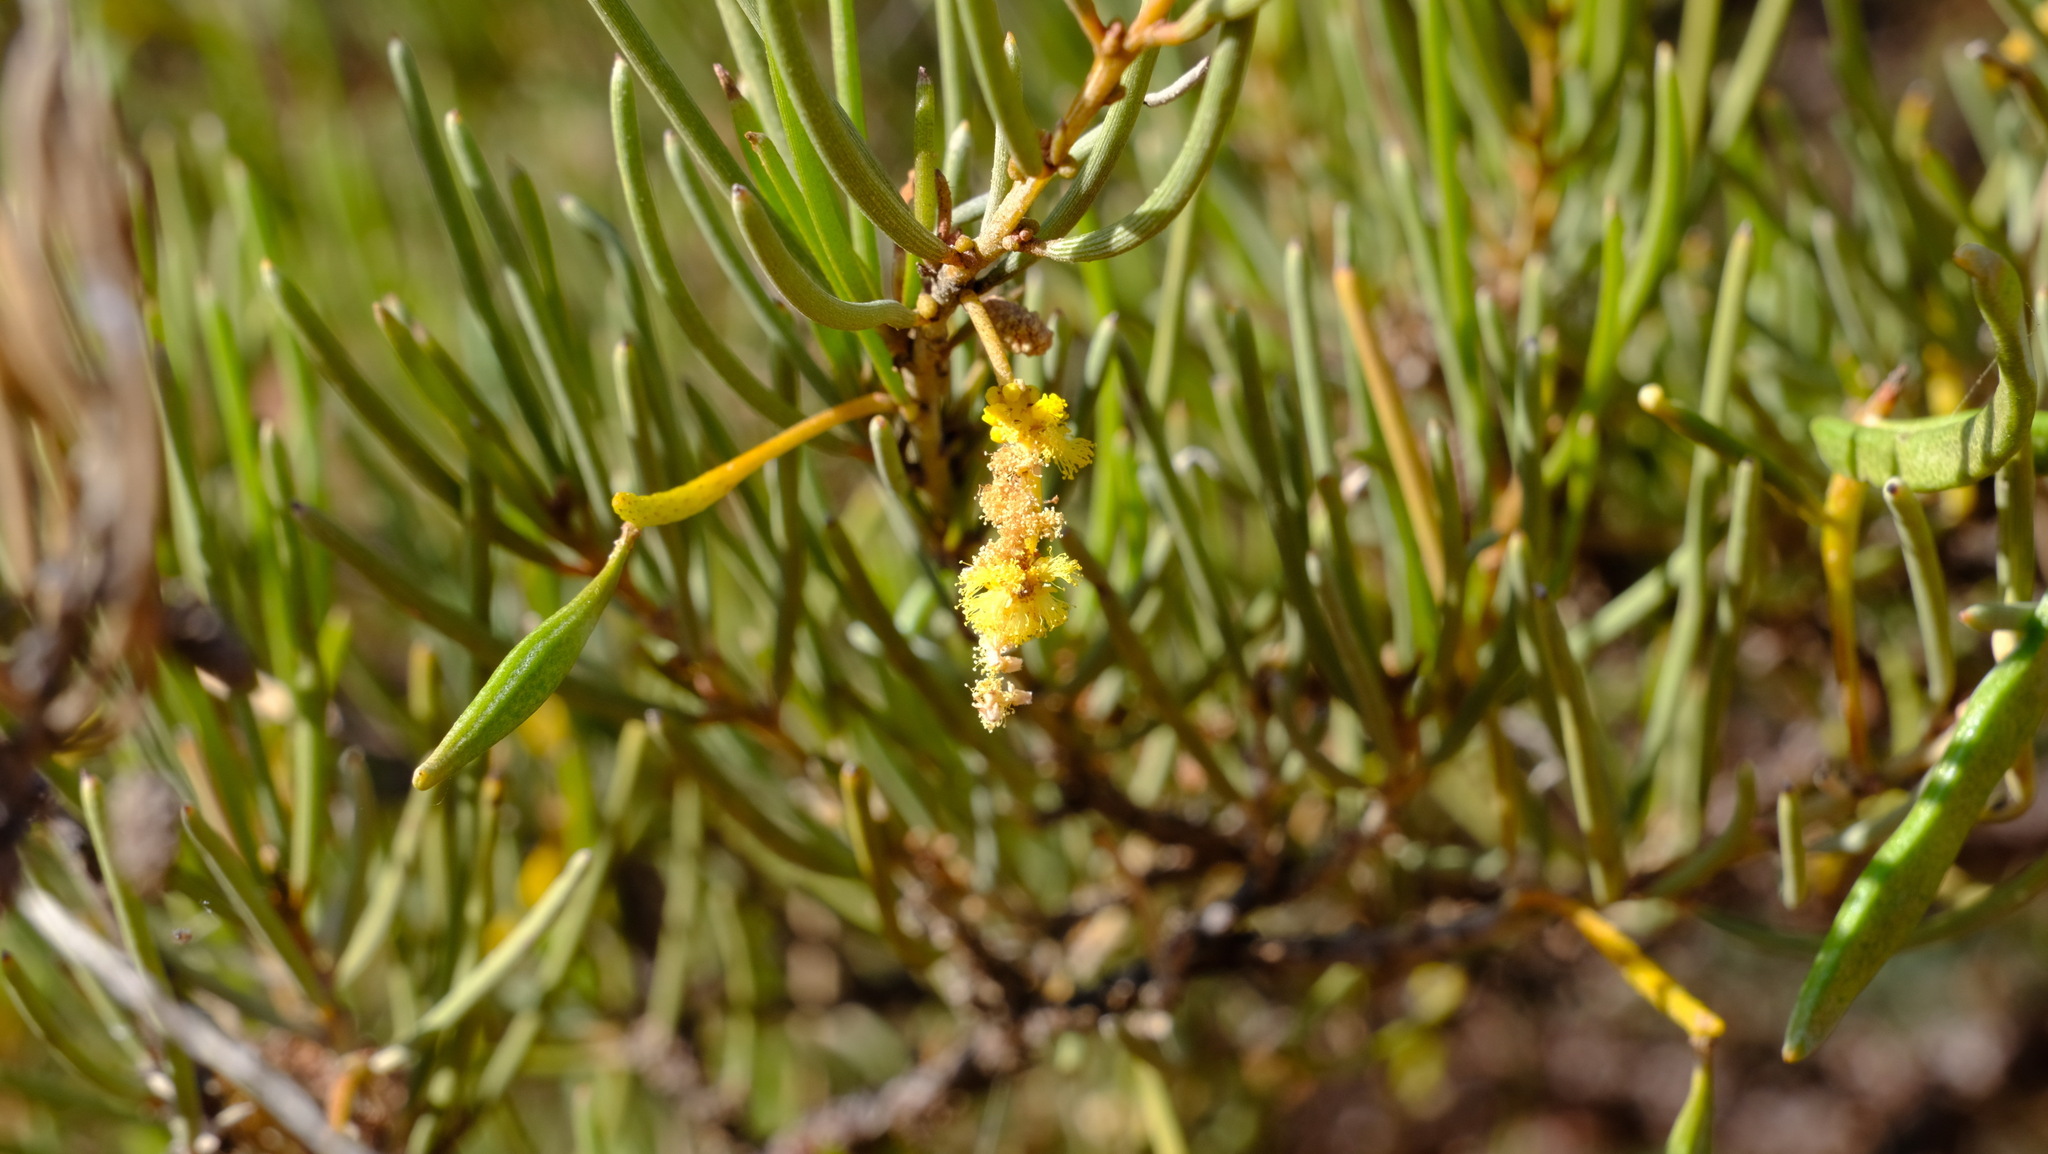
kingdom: Plantae
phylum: Tracheophyta
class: Magnoliopsida
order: Fabales
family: Fabaceae
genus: Acacia
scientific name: Acacia grasbyi
